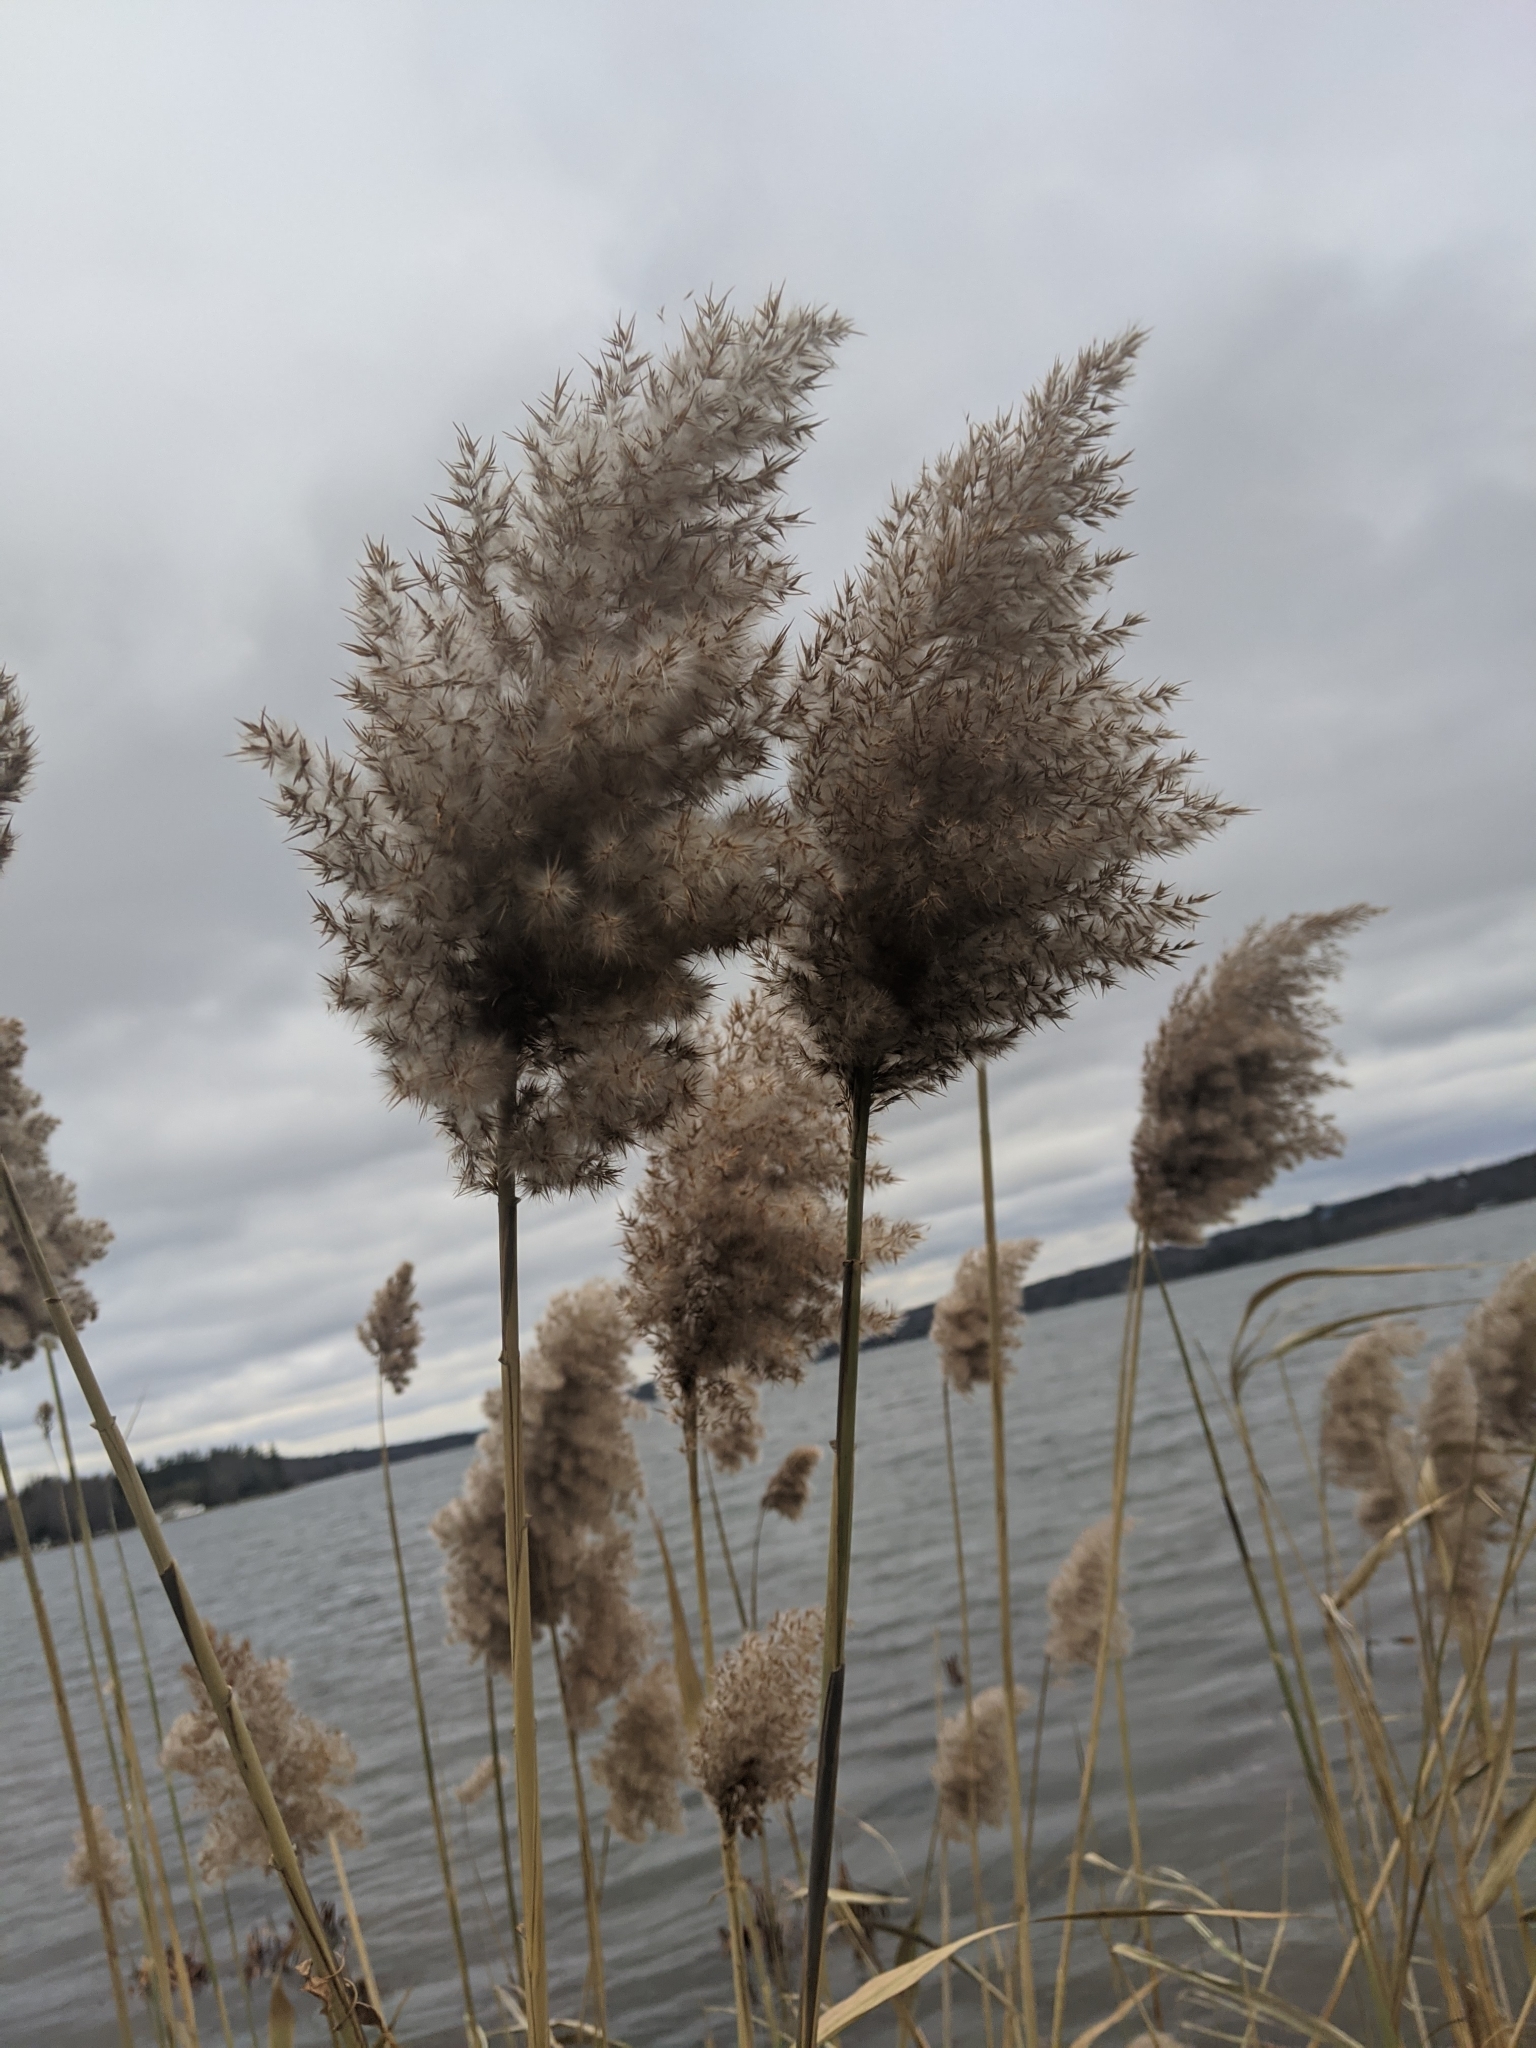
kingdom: Plantae
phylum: Tracheophyta
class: Liliopsida
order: Poales
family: Poaceae
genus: Phragmites
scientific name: Phragmites australis
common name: Common reed
